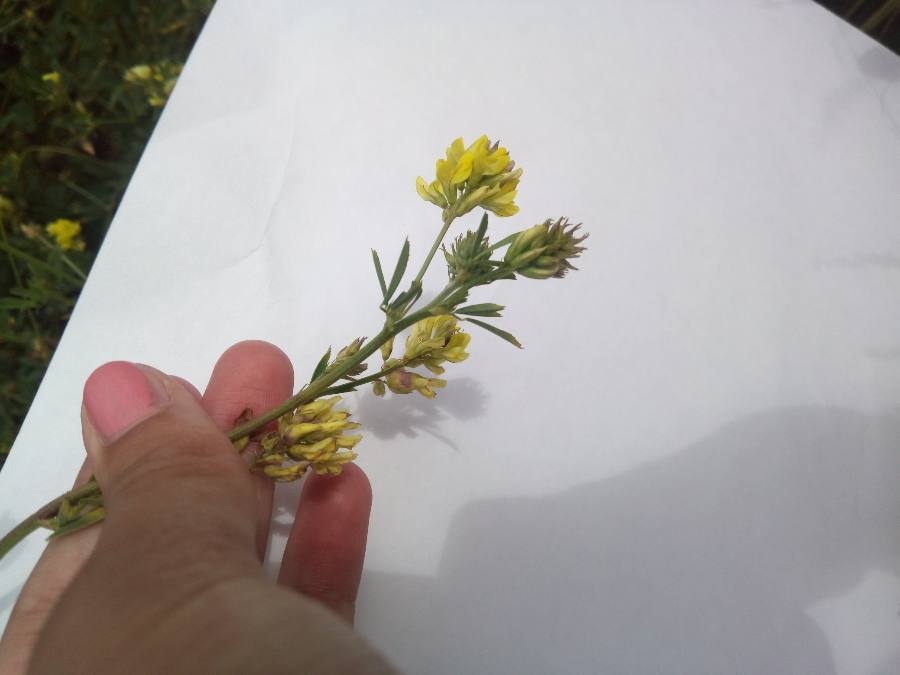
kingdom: Plantae
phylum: Tracheophyta
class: Magnoliopsida
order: Fabales
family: Fabaceae
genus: Medicago
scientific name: Medicago varia
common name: Sand lucerne
